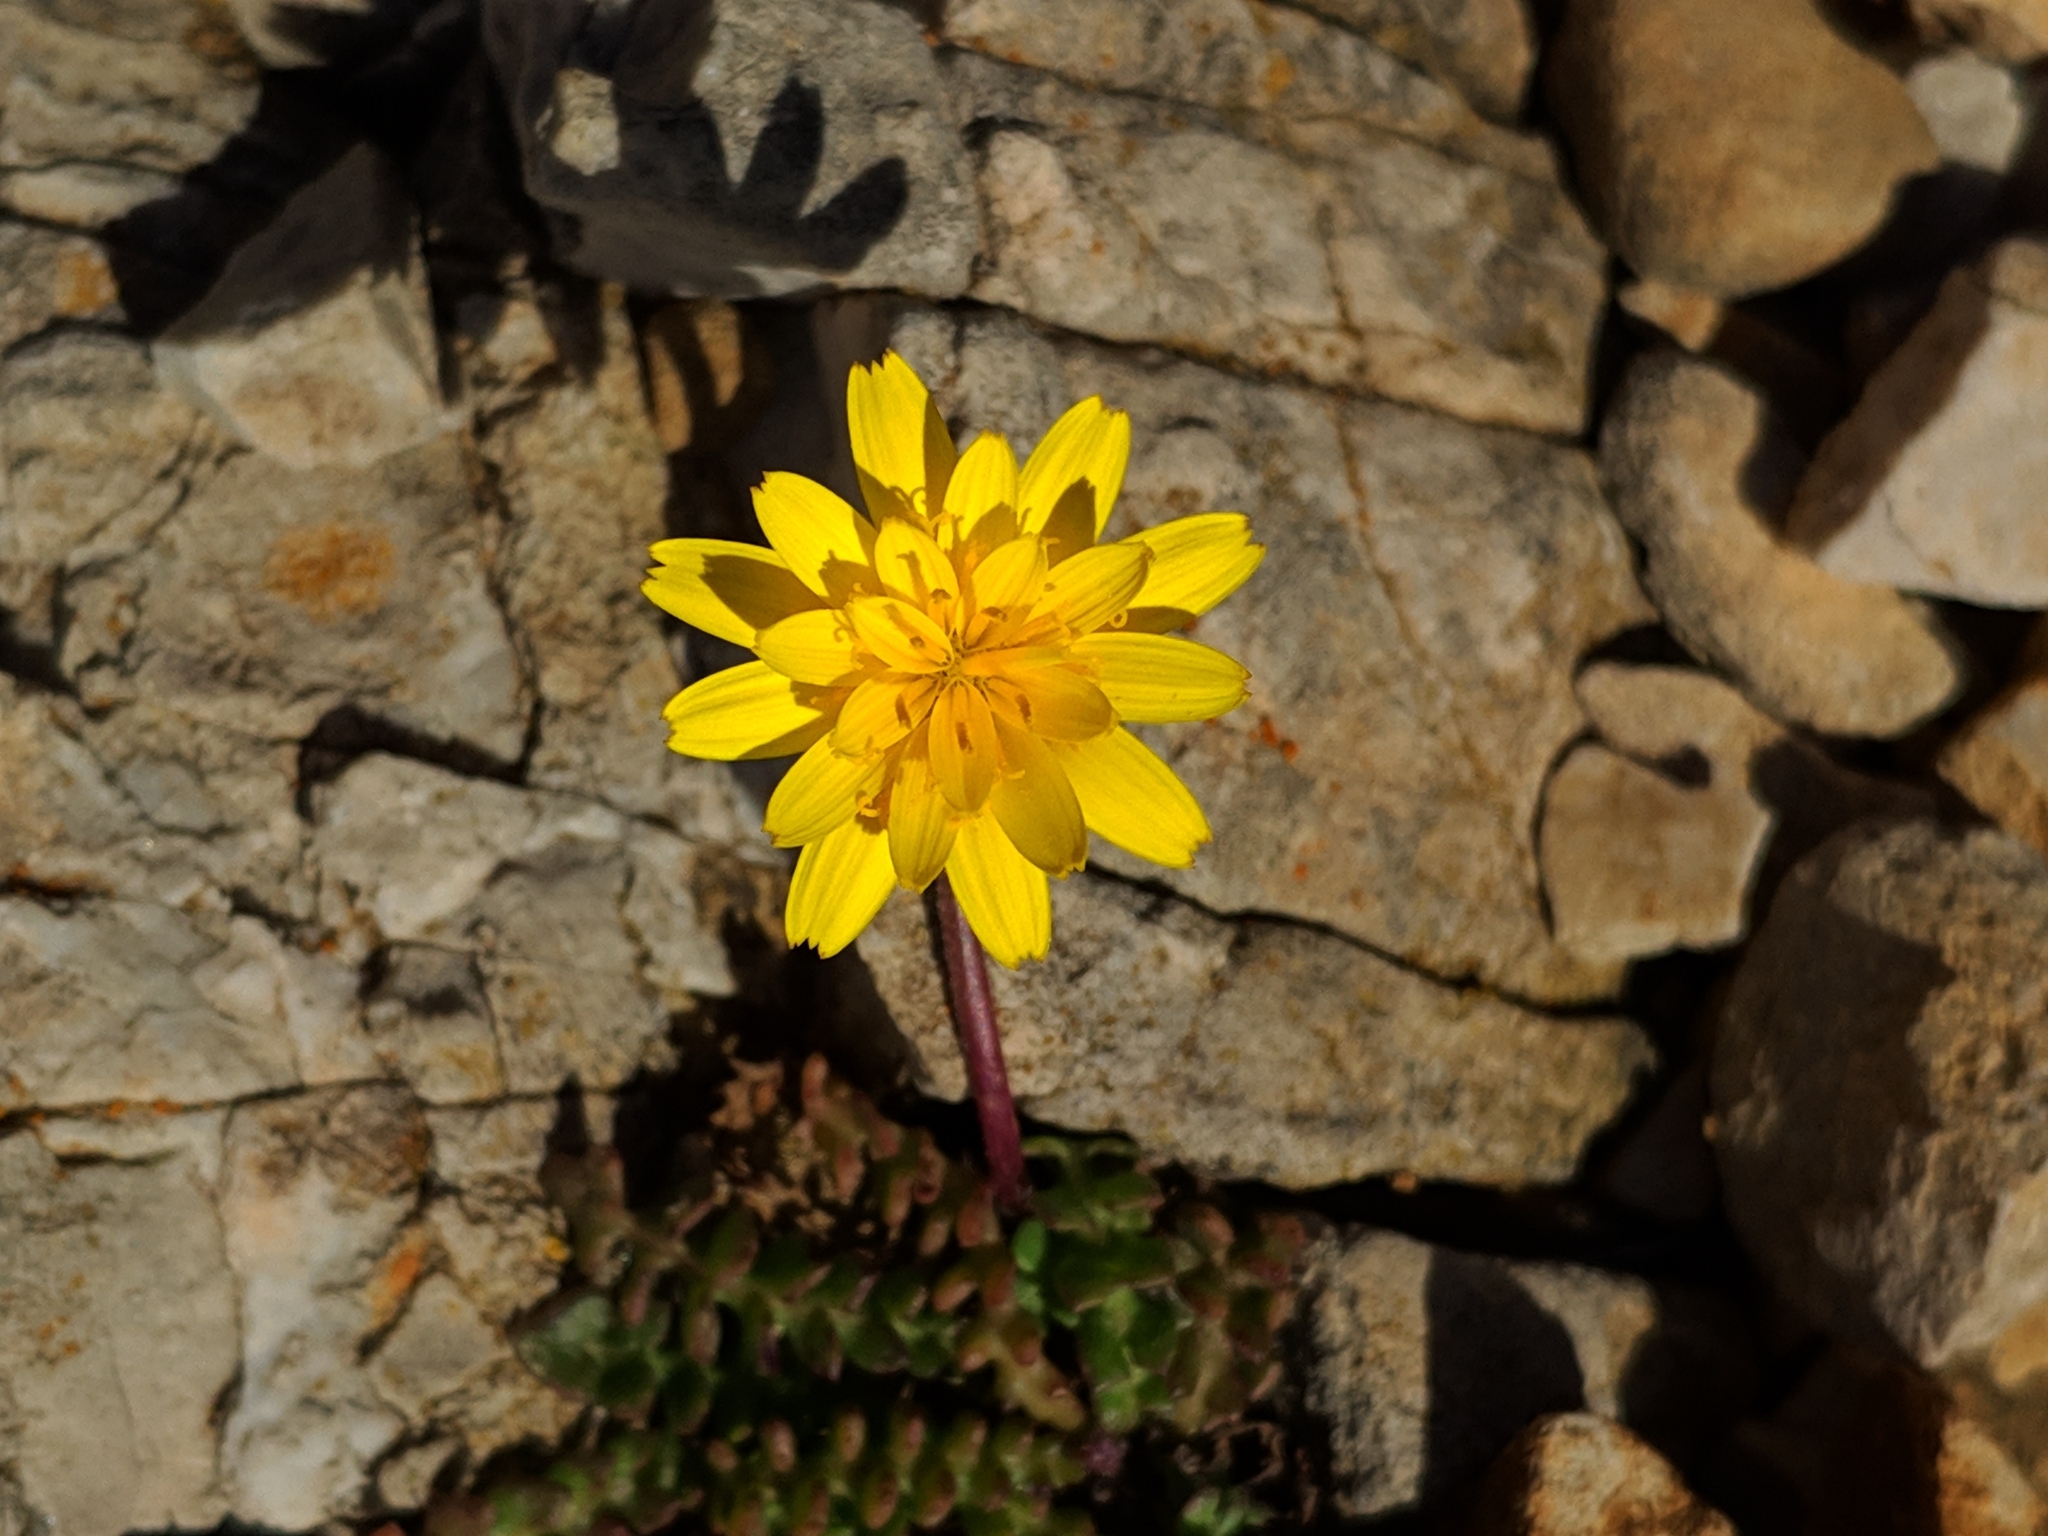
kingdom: Plantae
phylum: Tracheophyta
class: Magnoliopsida
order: Asterales
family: Asteraceae
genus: Hyoseris
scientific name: Hyoseris radiata
